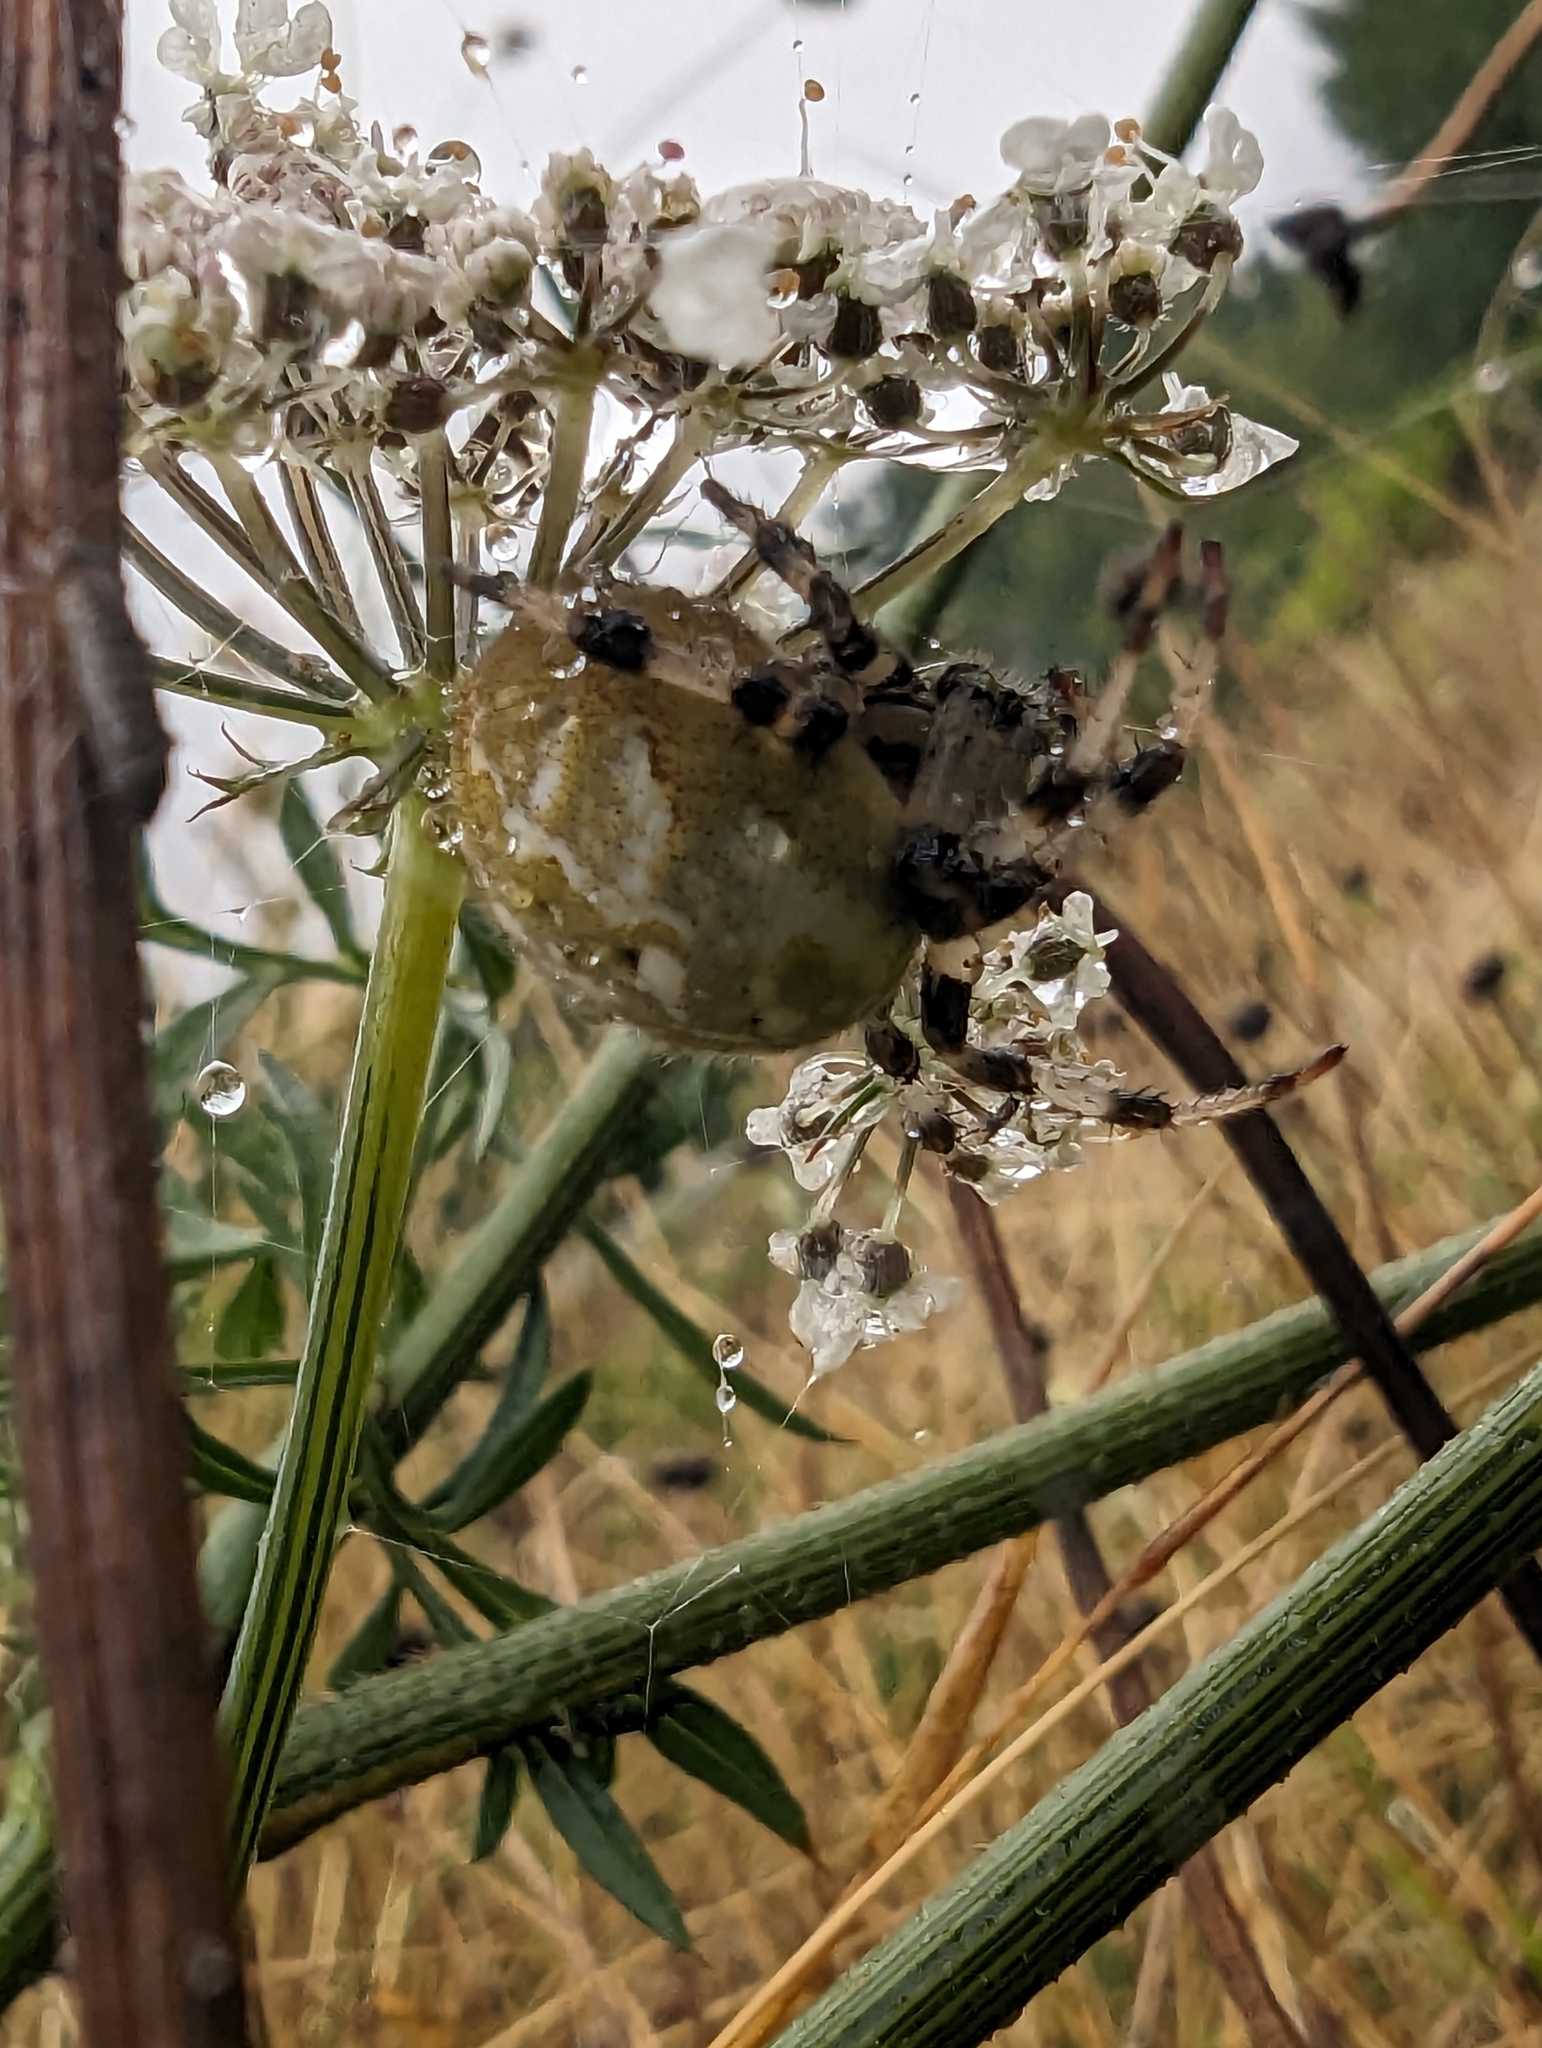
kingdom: Animalia
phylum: Arthropoda
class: Arachnida
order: Araneae
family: Araneidae
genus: Araneus
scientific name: Araneus quadratus
